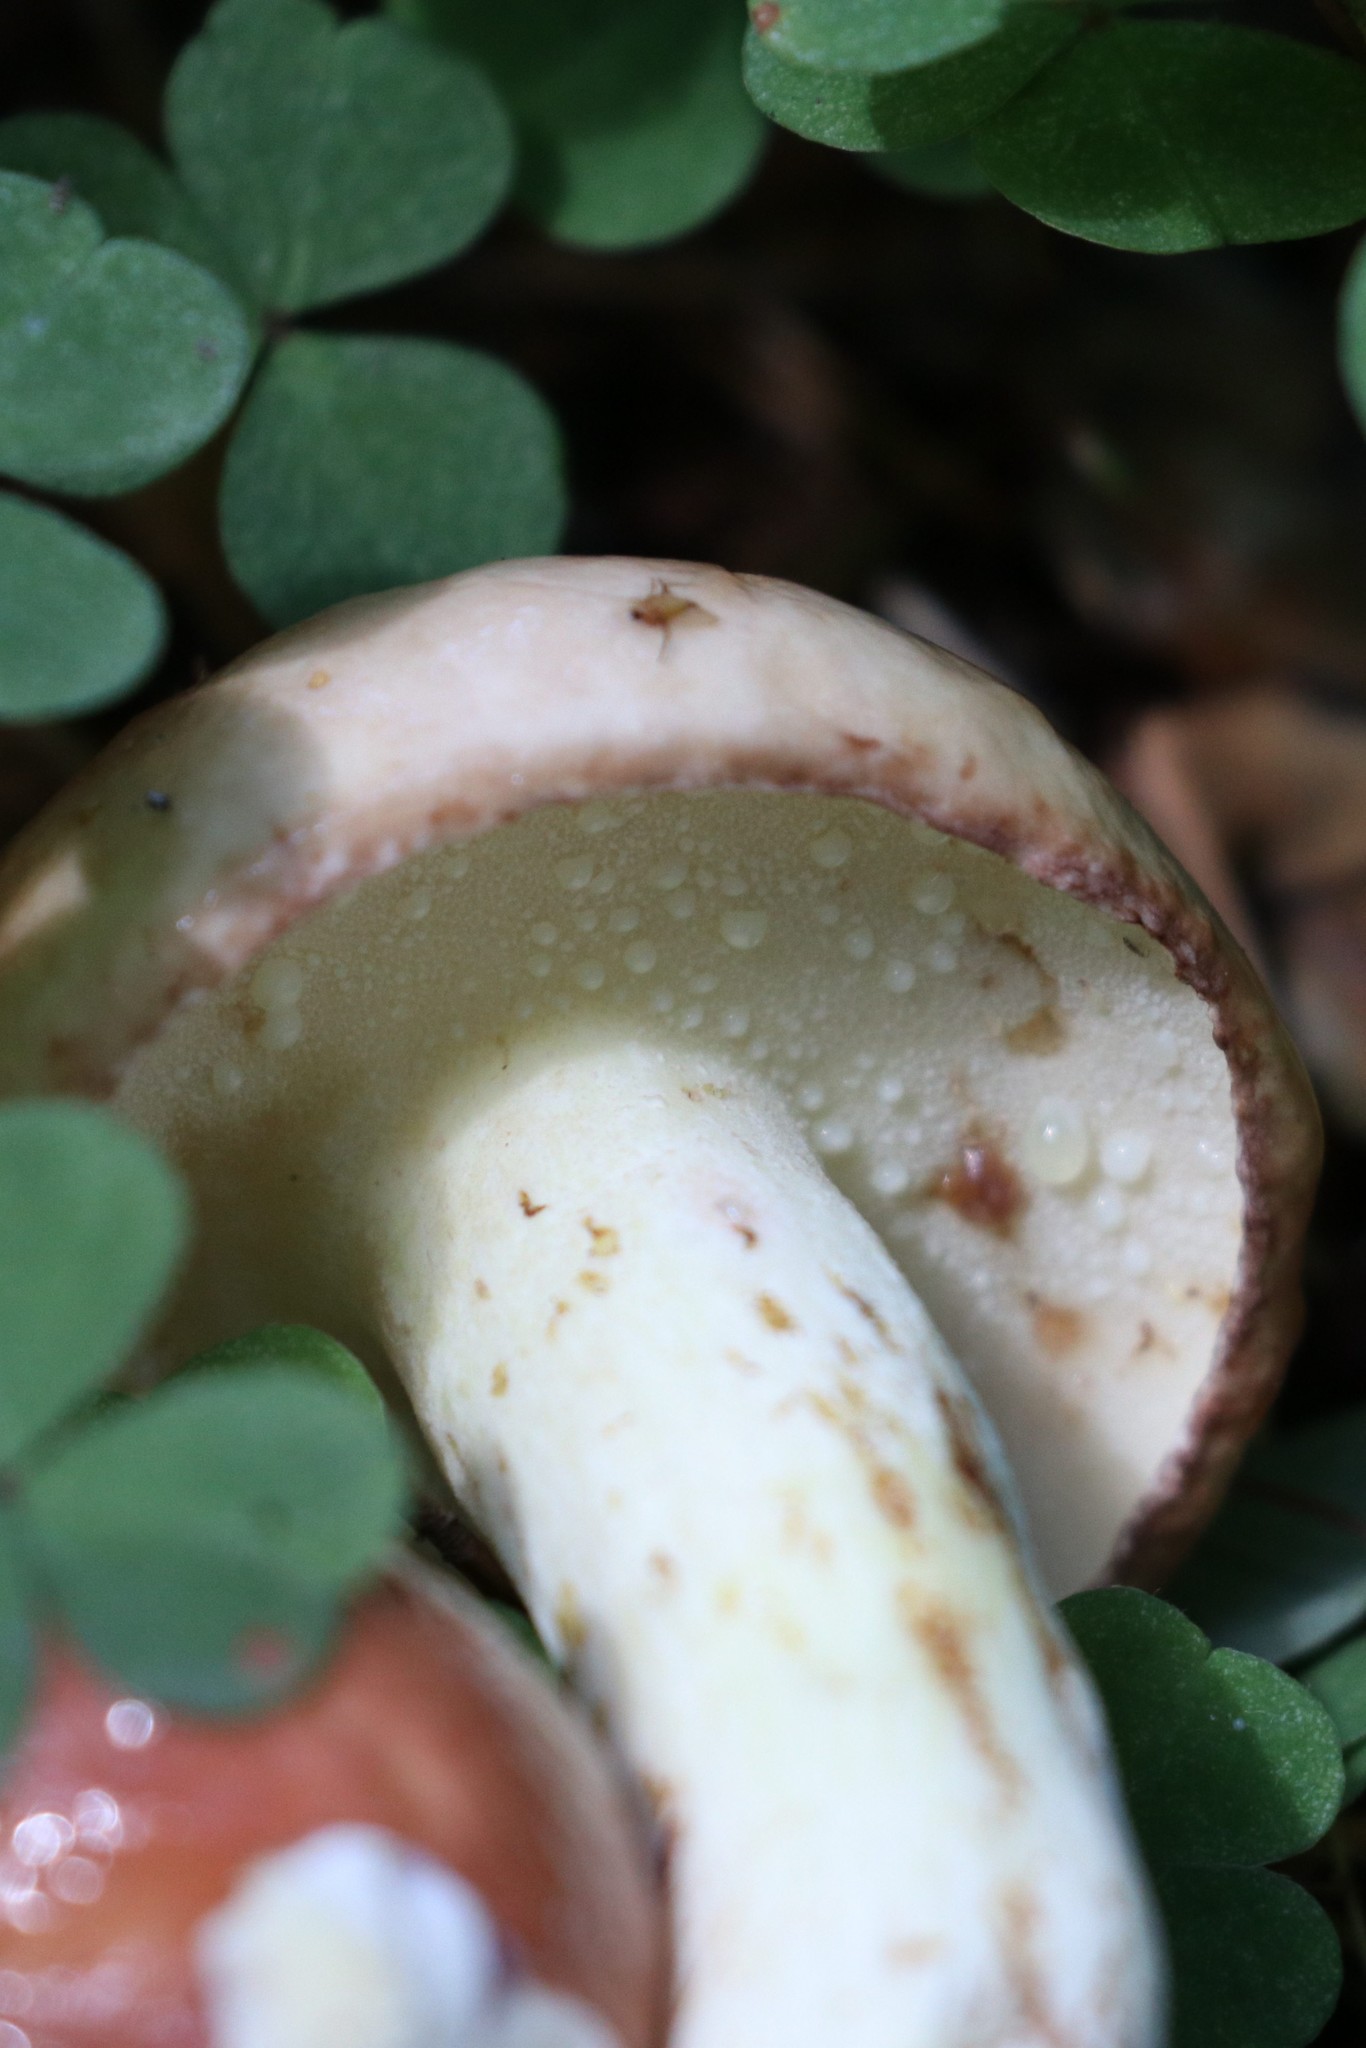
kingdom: Fungi
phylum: Basidiomycota
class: Agaricomycetes
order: Boletales
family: Suillaceae
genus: Suillus
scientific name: Suillus granulatus
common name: Weeping bolete
